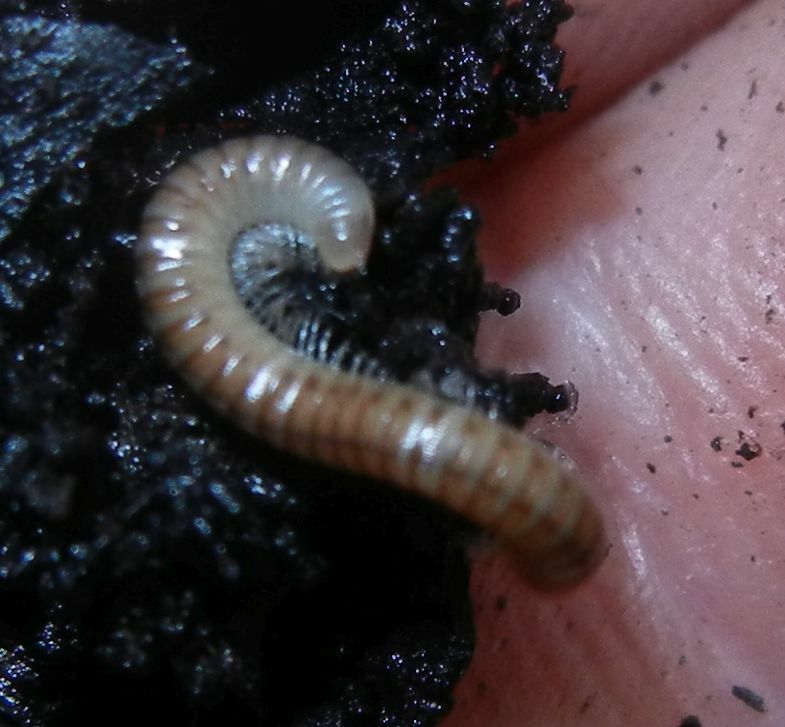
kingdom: Animalia
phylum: Arthropoda
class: Diplopoda
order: Julida
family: Julidae
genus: Cylindroiulus
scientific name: Cylindroiulus punctatus
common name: Blunt-tailed millipede
